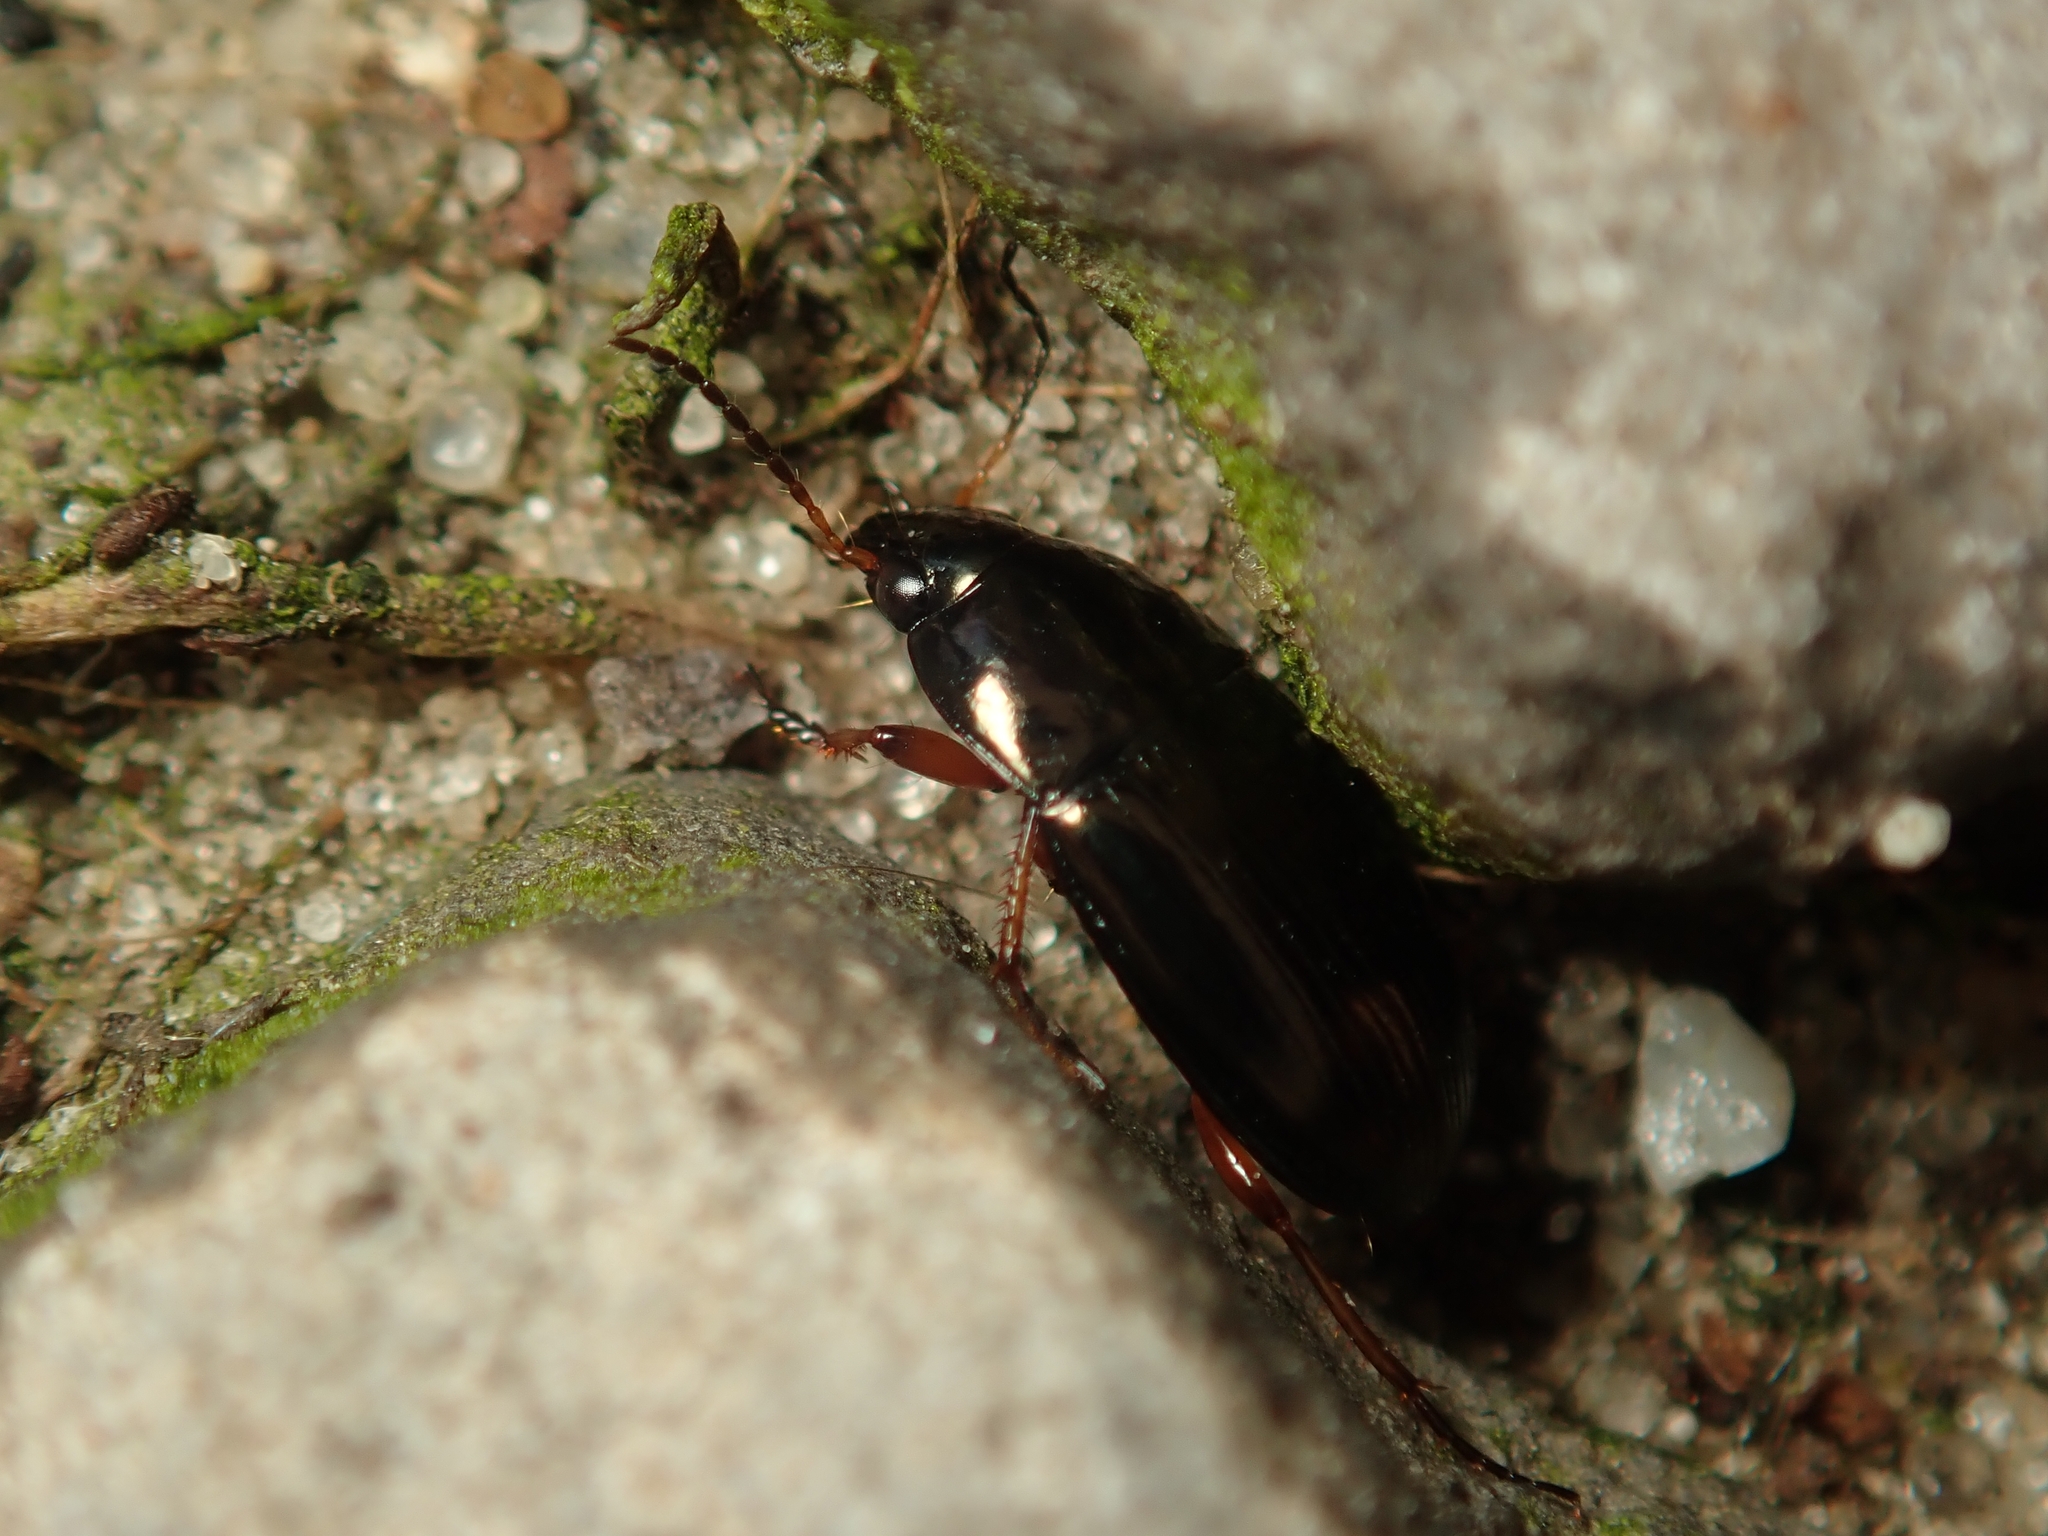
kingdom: Animalia
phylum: Arthropoda
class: Insecta
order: Coleoptera
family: Carabidae
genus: Amara
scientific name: Amara familiaris
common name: Familiar harp round beetle
